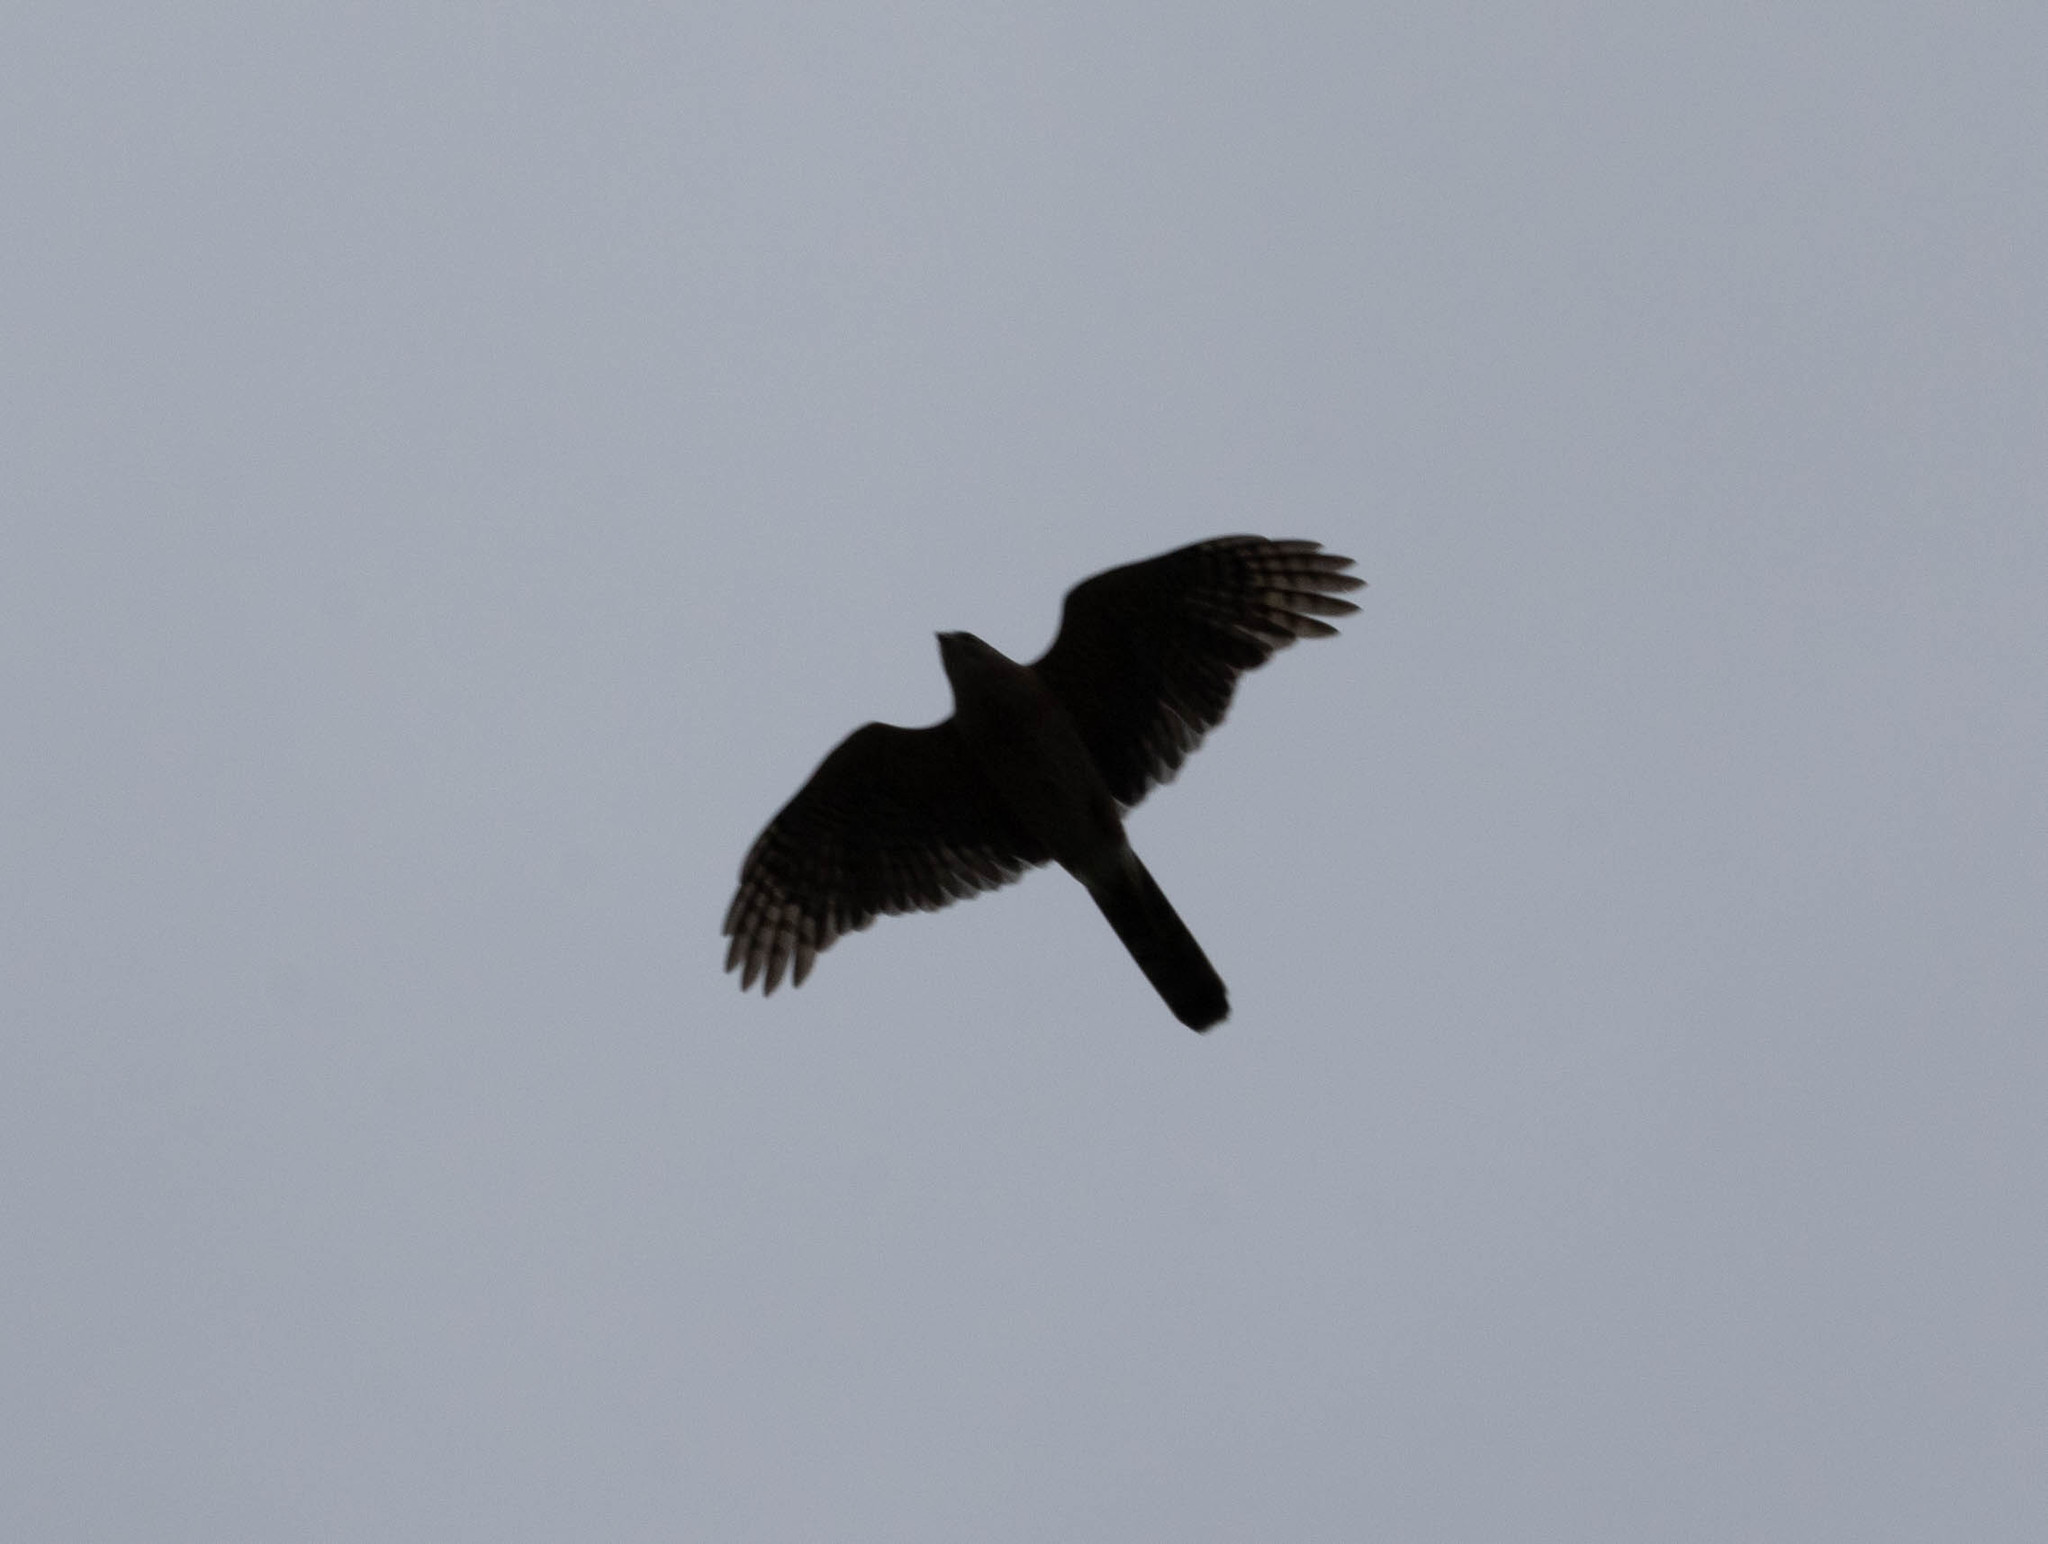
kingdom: Animalia
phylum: Chordata
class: Aves
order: Accipitriformes
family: Accipitridae
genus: Accipiter
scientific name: Accipiter cooperii
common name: Cooper's hawk
